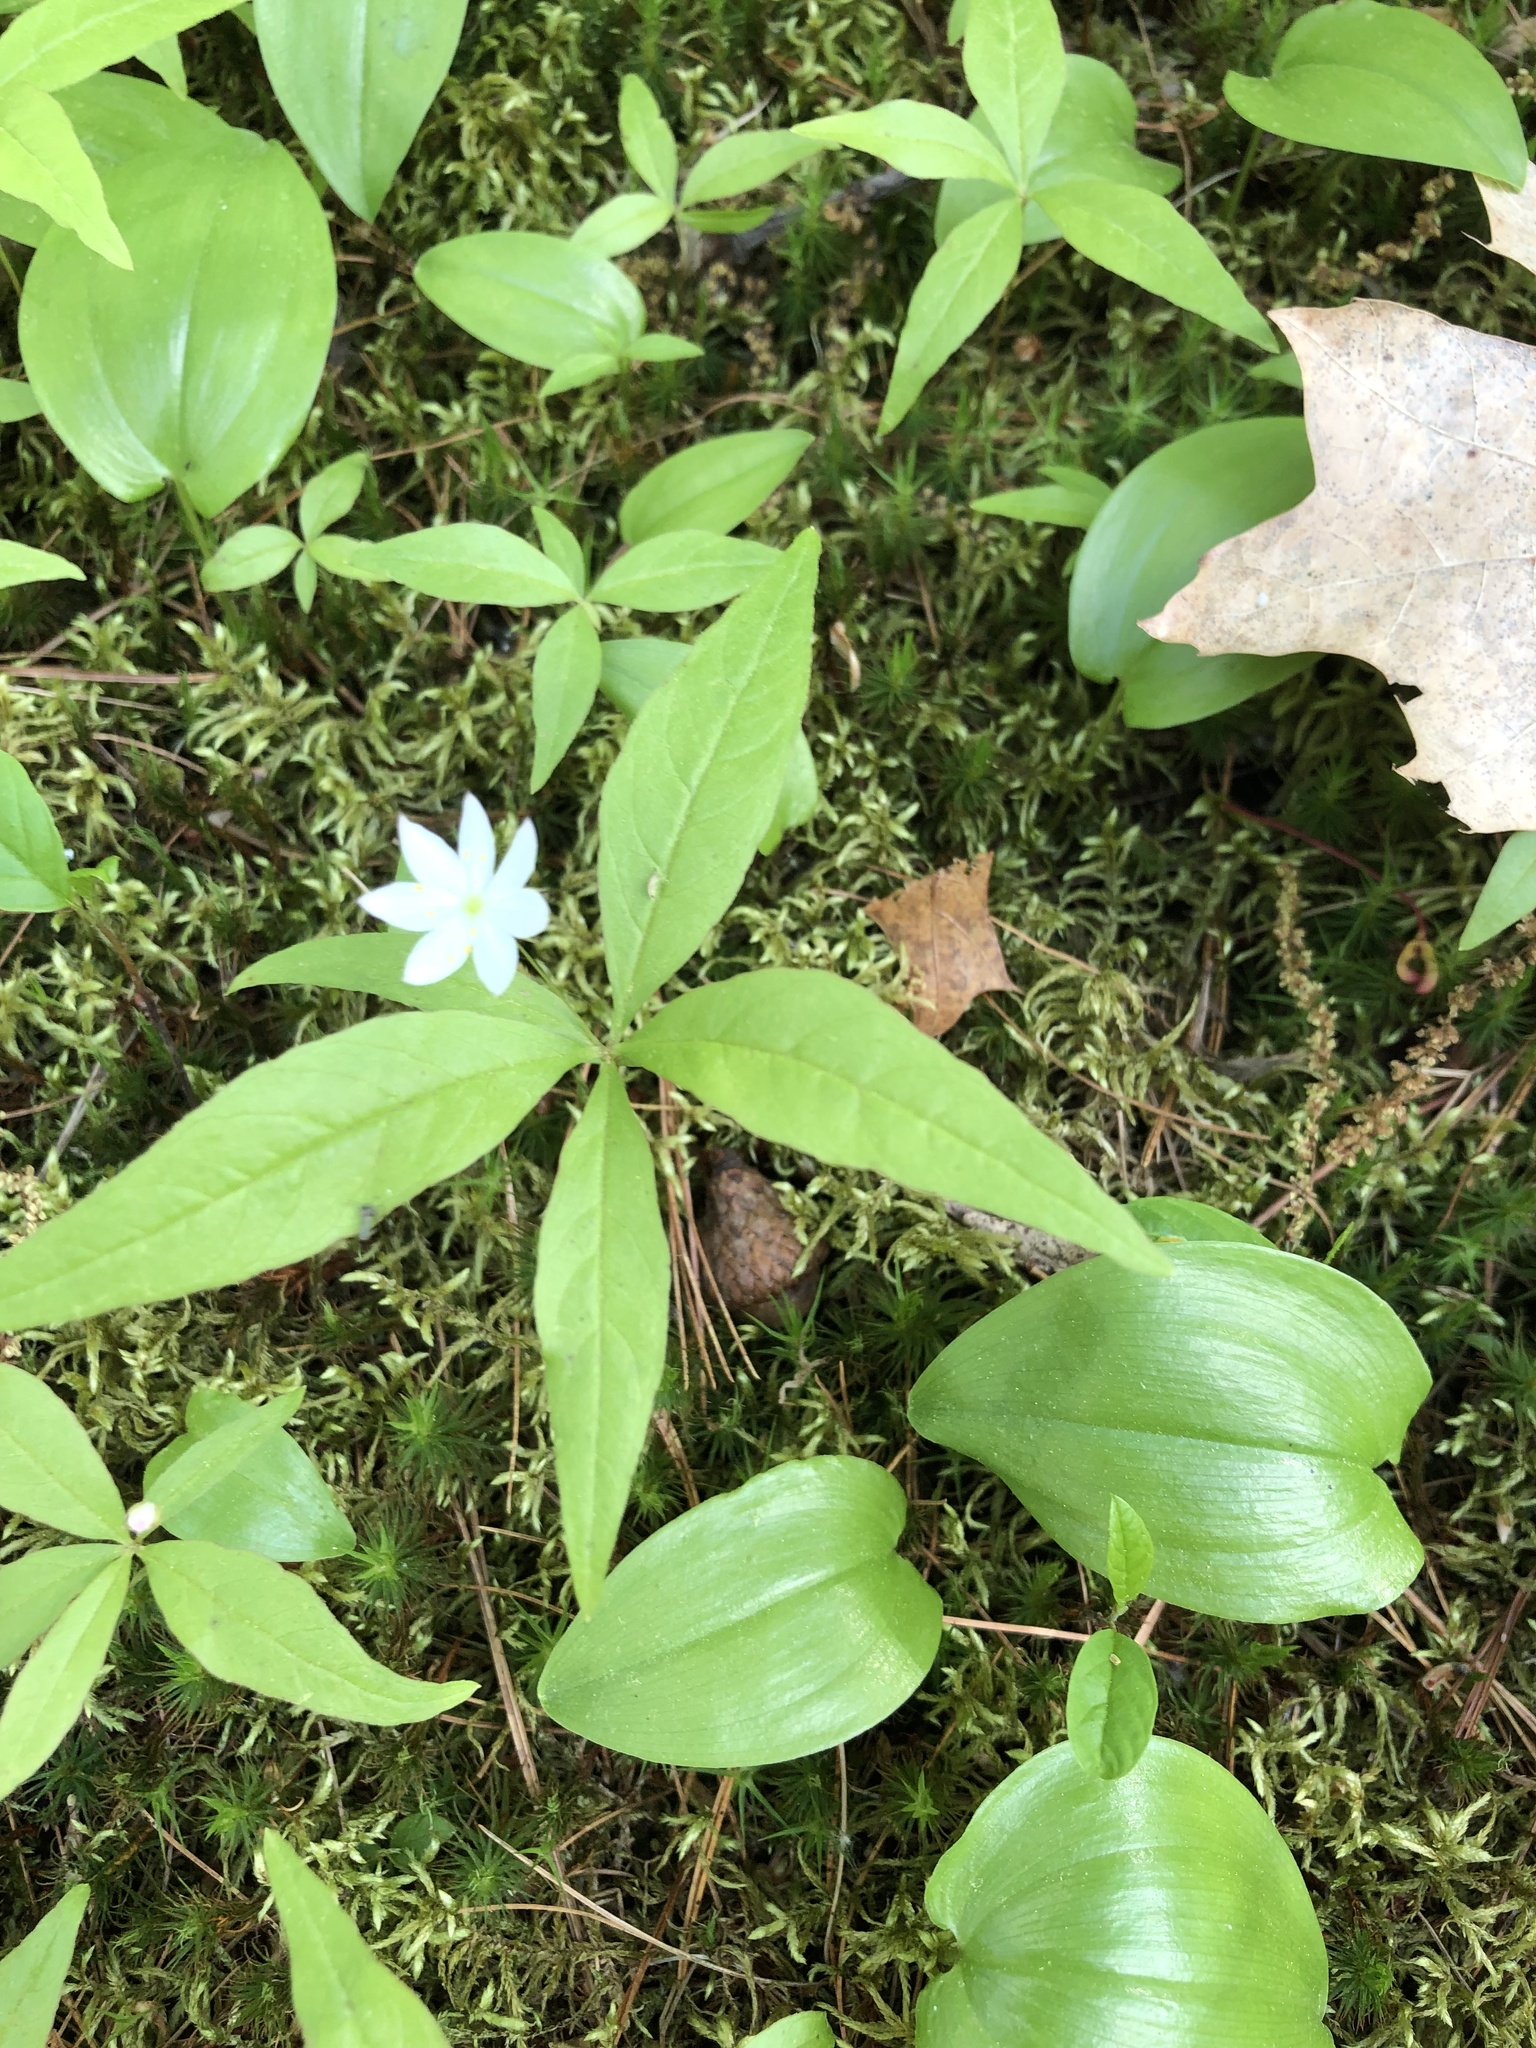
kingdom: Plantae
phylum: Tracheophyta
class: Magnoliopsida
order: Ericales
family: Primulaceae
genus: Lysimachia
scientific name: Lysimachia borealis
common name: American starflower
